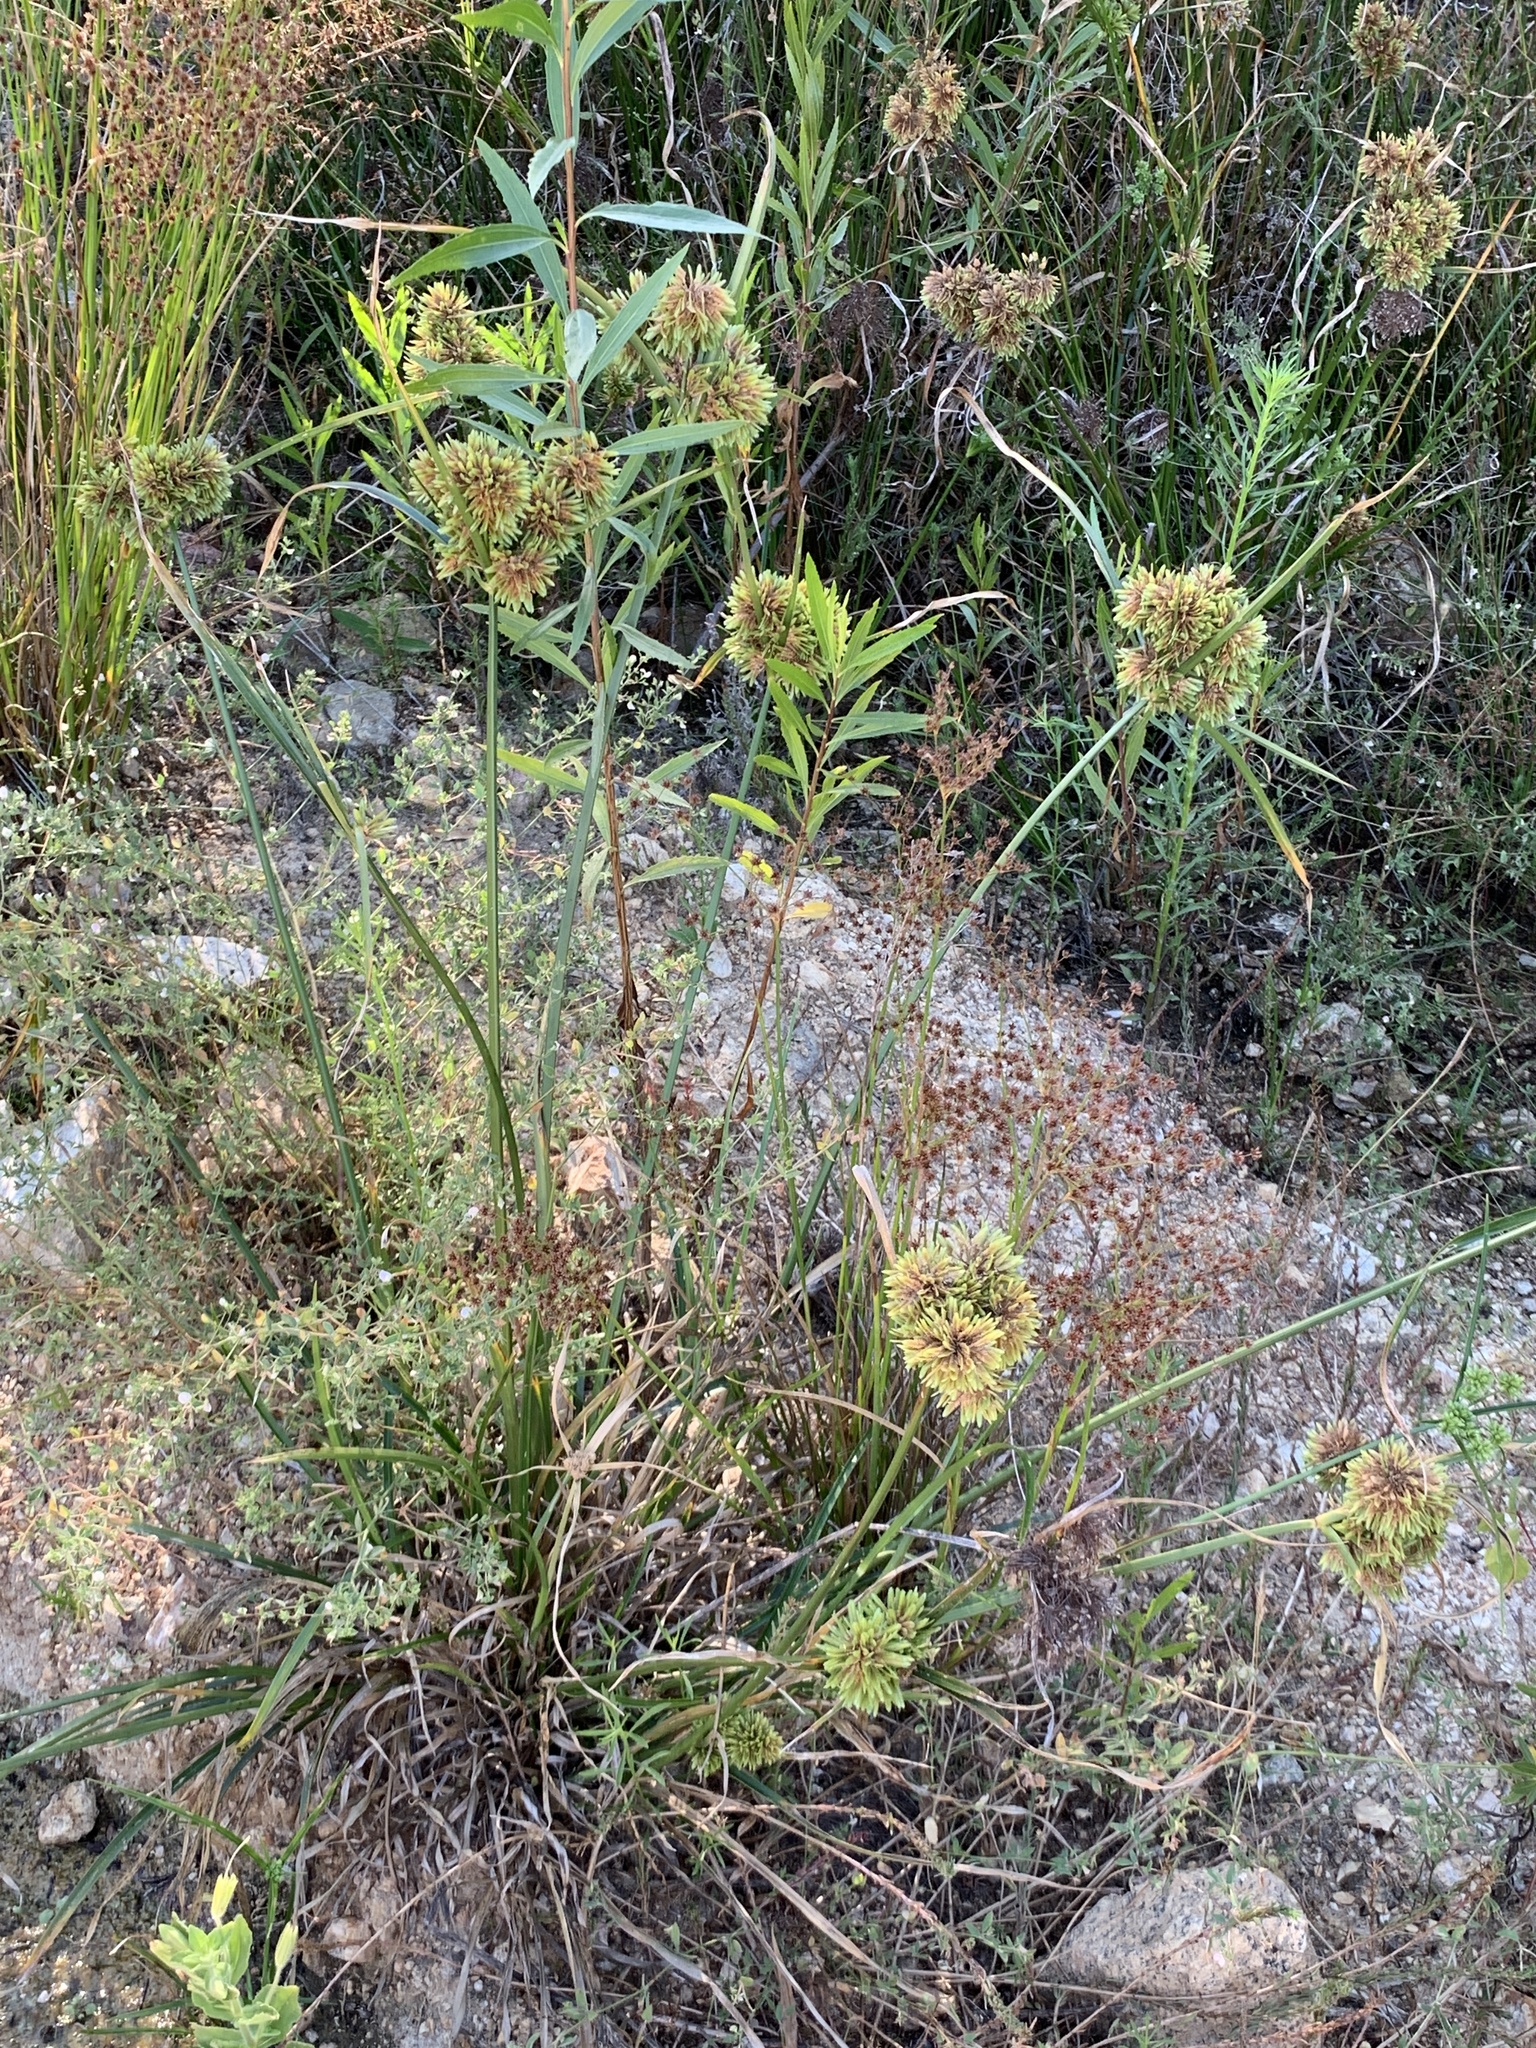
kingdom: Plantae
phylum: Tracheophyta
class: Liliopsida
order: Poales
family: Cyperaceae
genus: Cyperus
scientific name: Cyperus eragrostis
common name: Tall flatsedge
